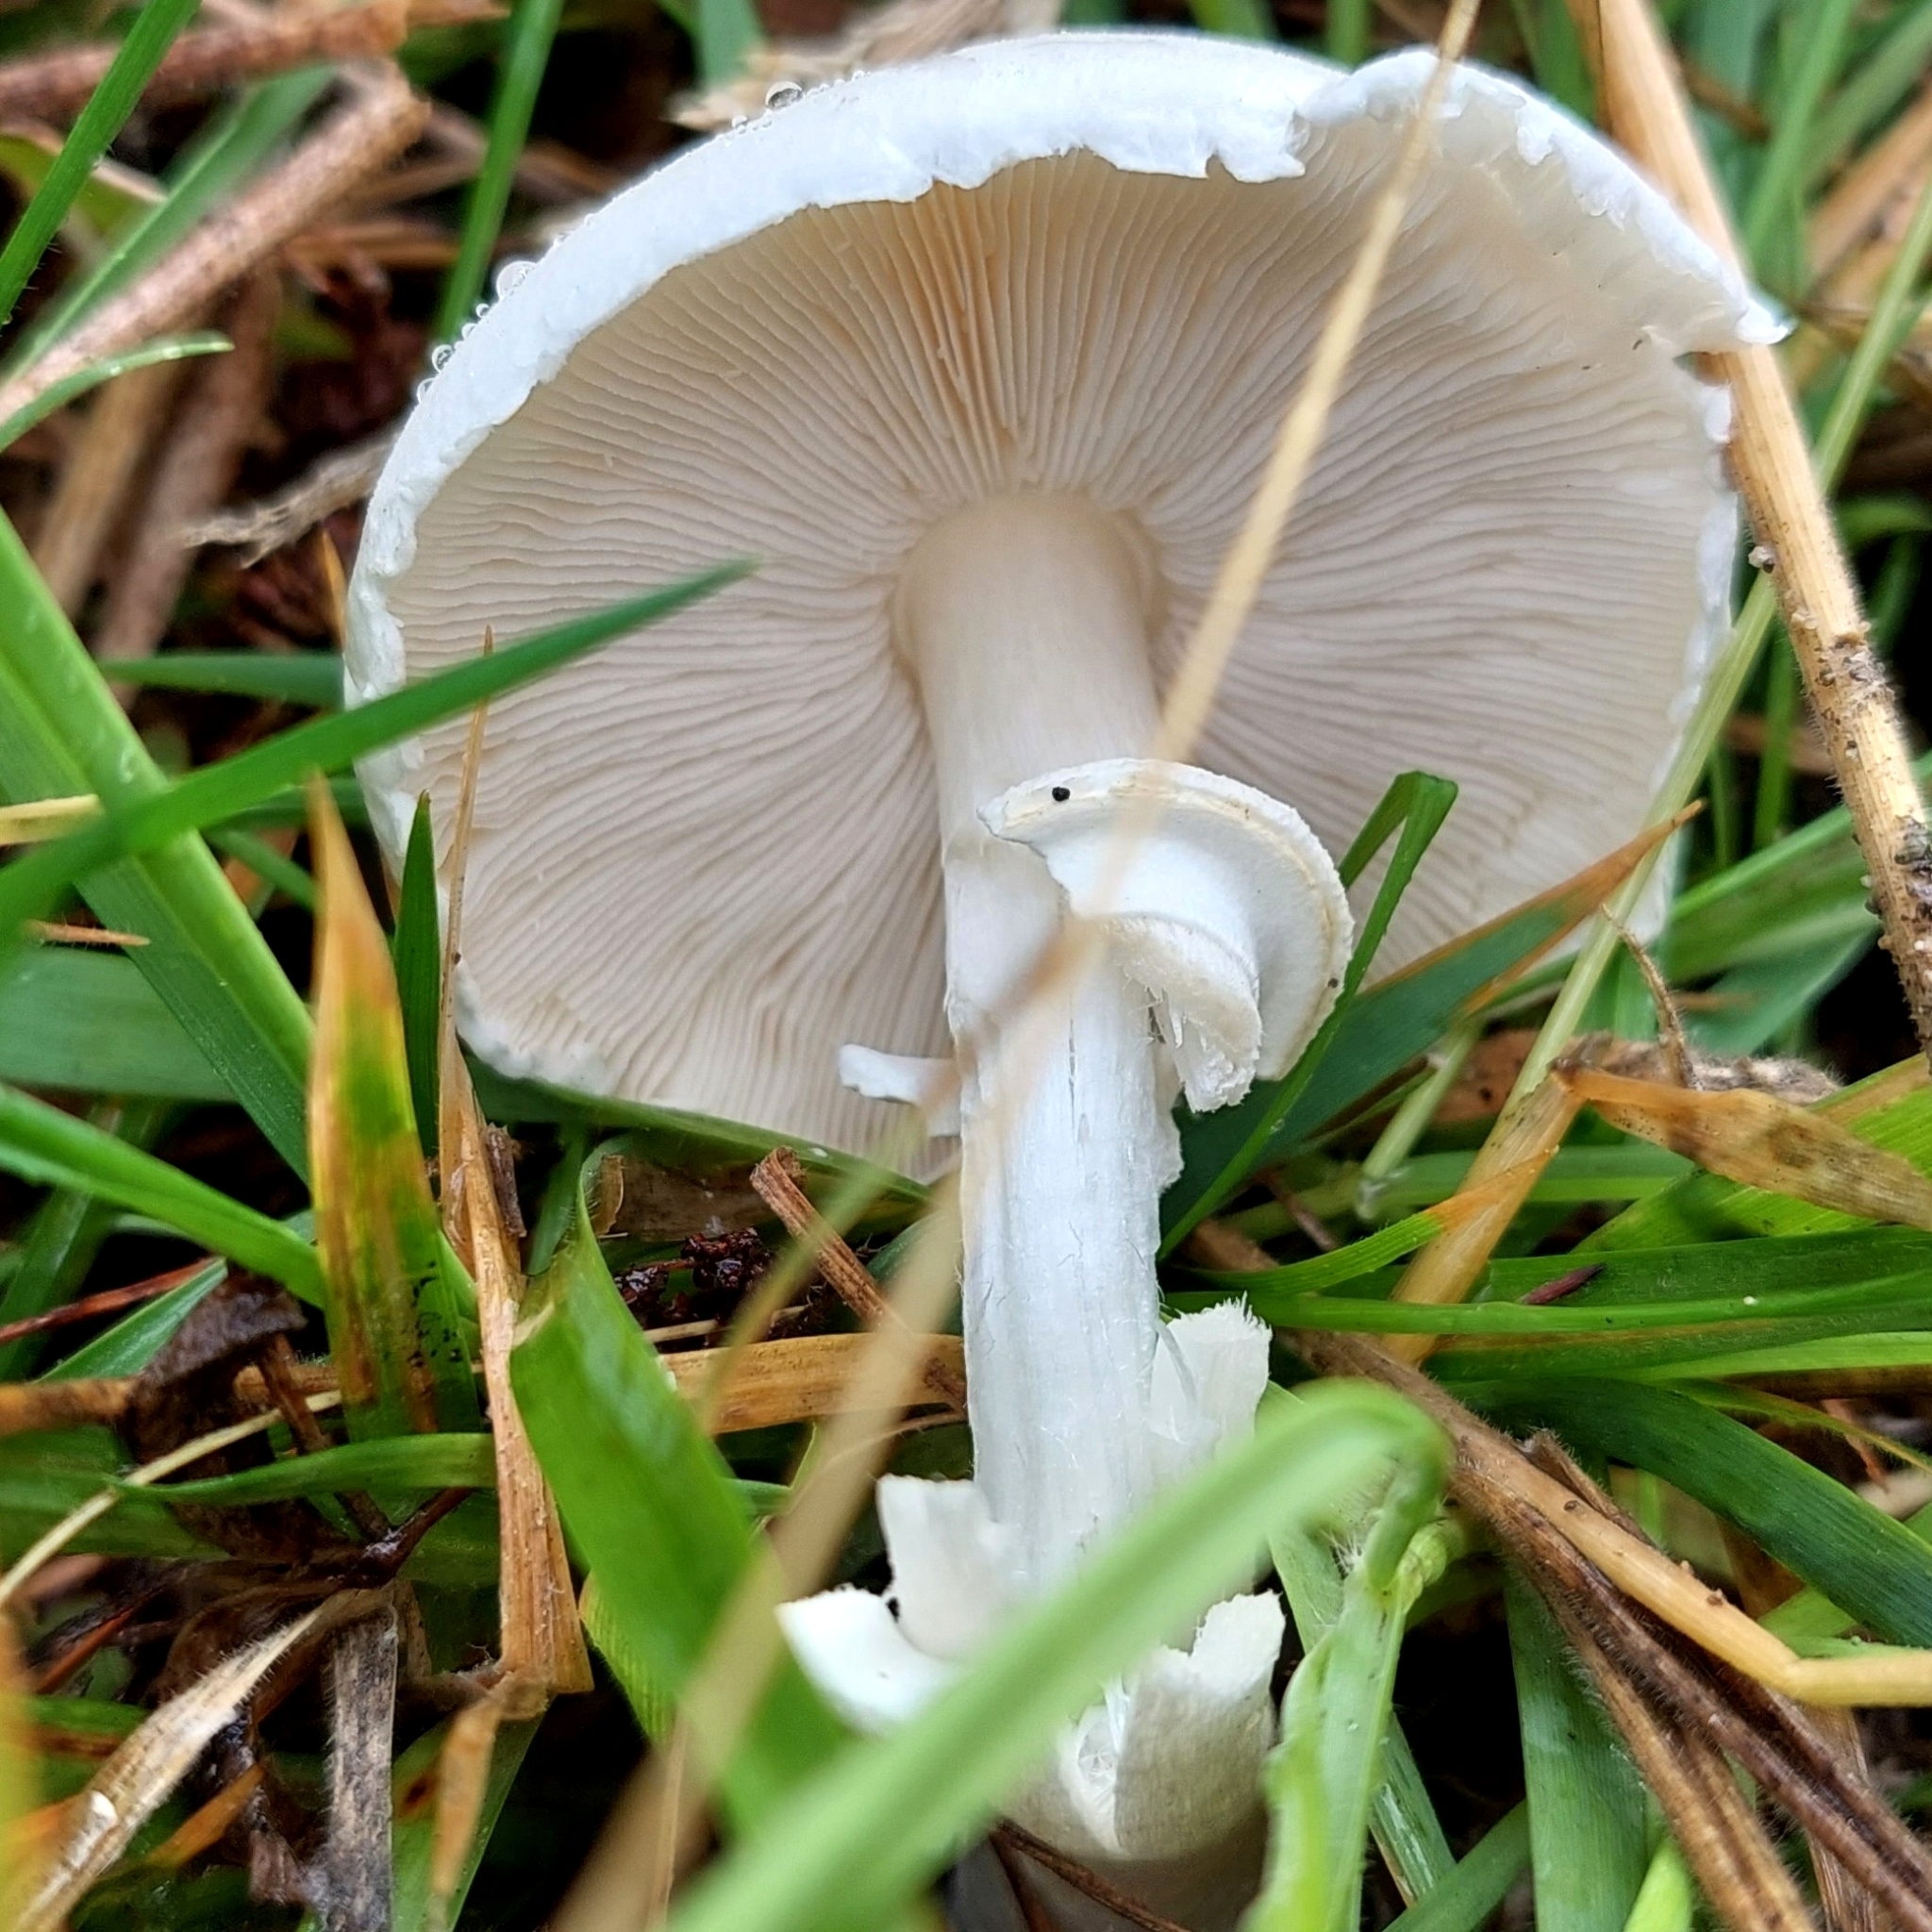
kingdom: Fungi
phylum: Basidiomycota
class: Agaricomycetes
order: Agaricales
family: Agaricaceae
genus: Leucoagaricus
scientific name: Leucoagaricus leucothites
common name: White dapperling
